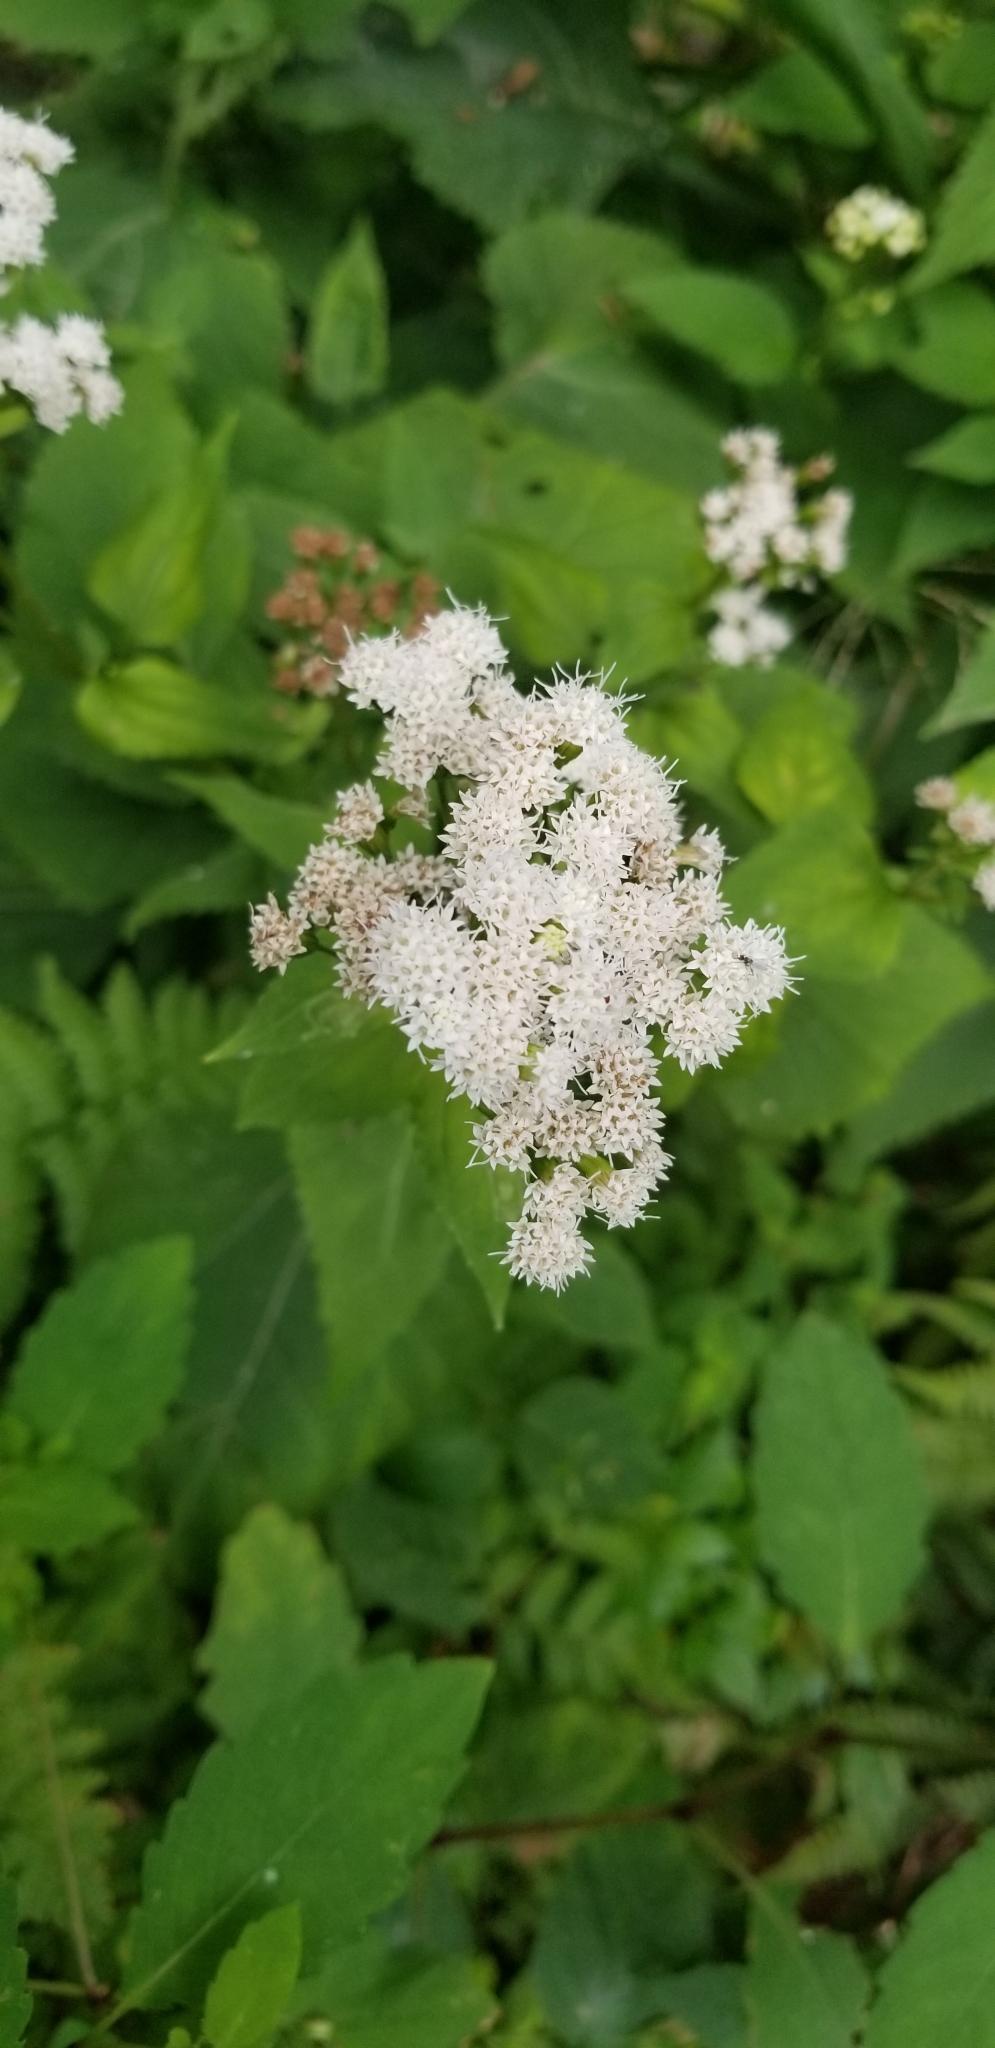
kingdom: Plantae
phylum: Tracheophyta
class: Magnoliopsida
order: Asterales
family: Asteraceae
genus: Ageratina
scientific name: Ageratina altissima
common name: White snakeroot
